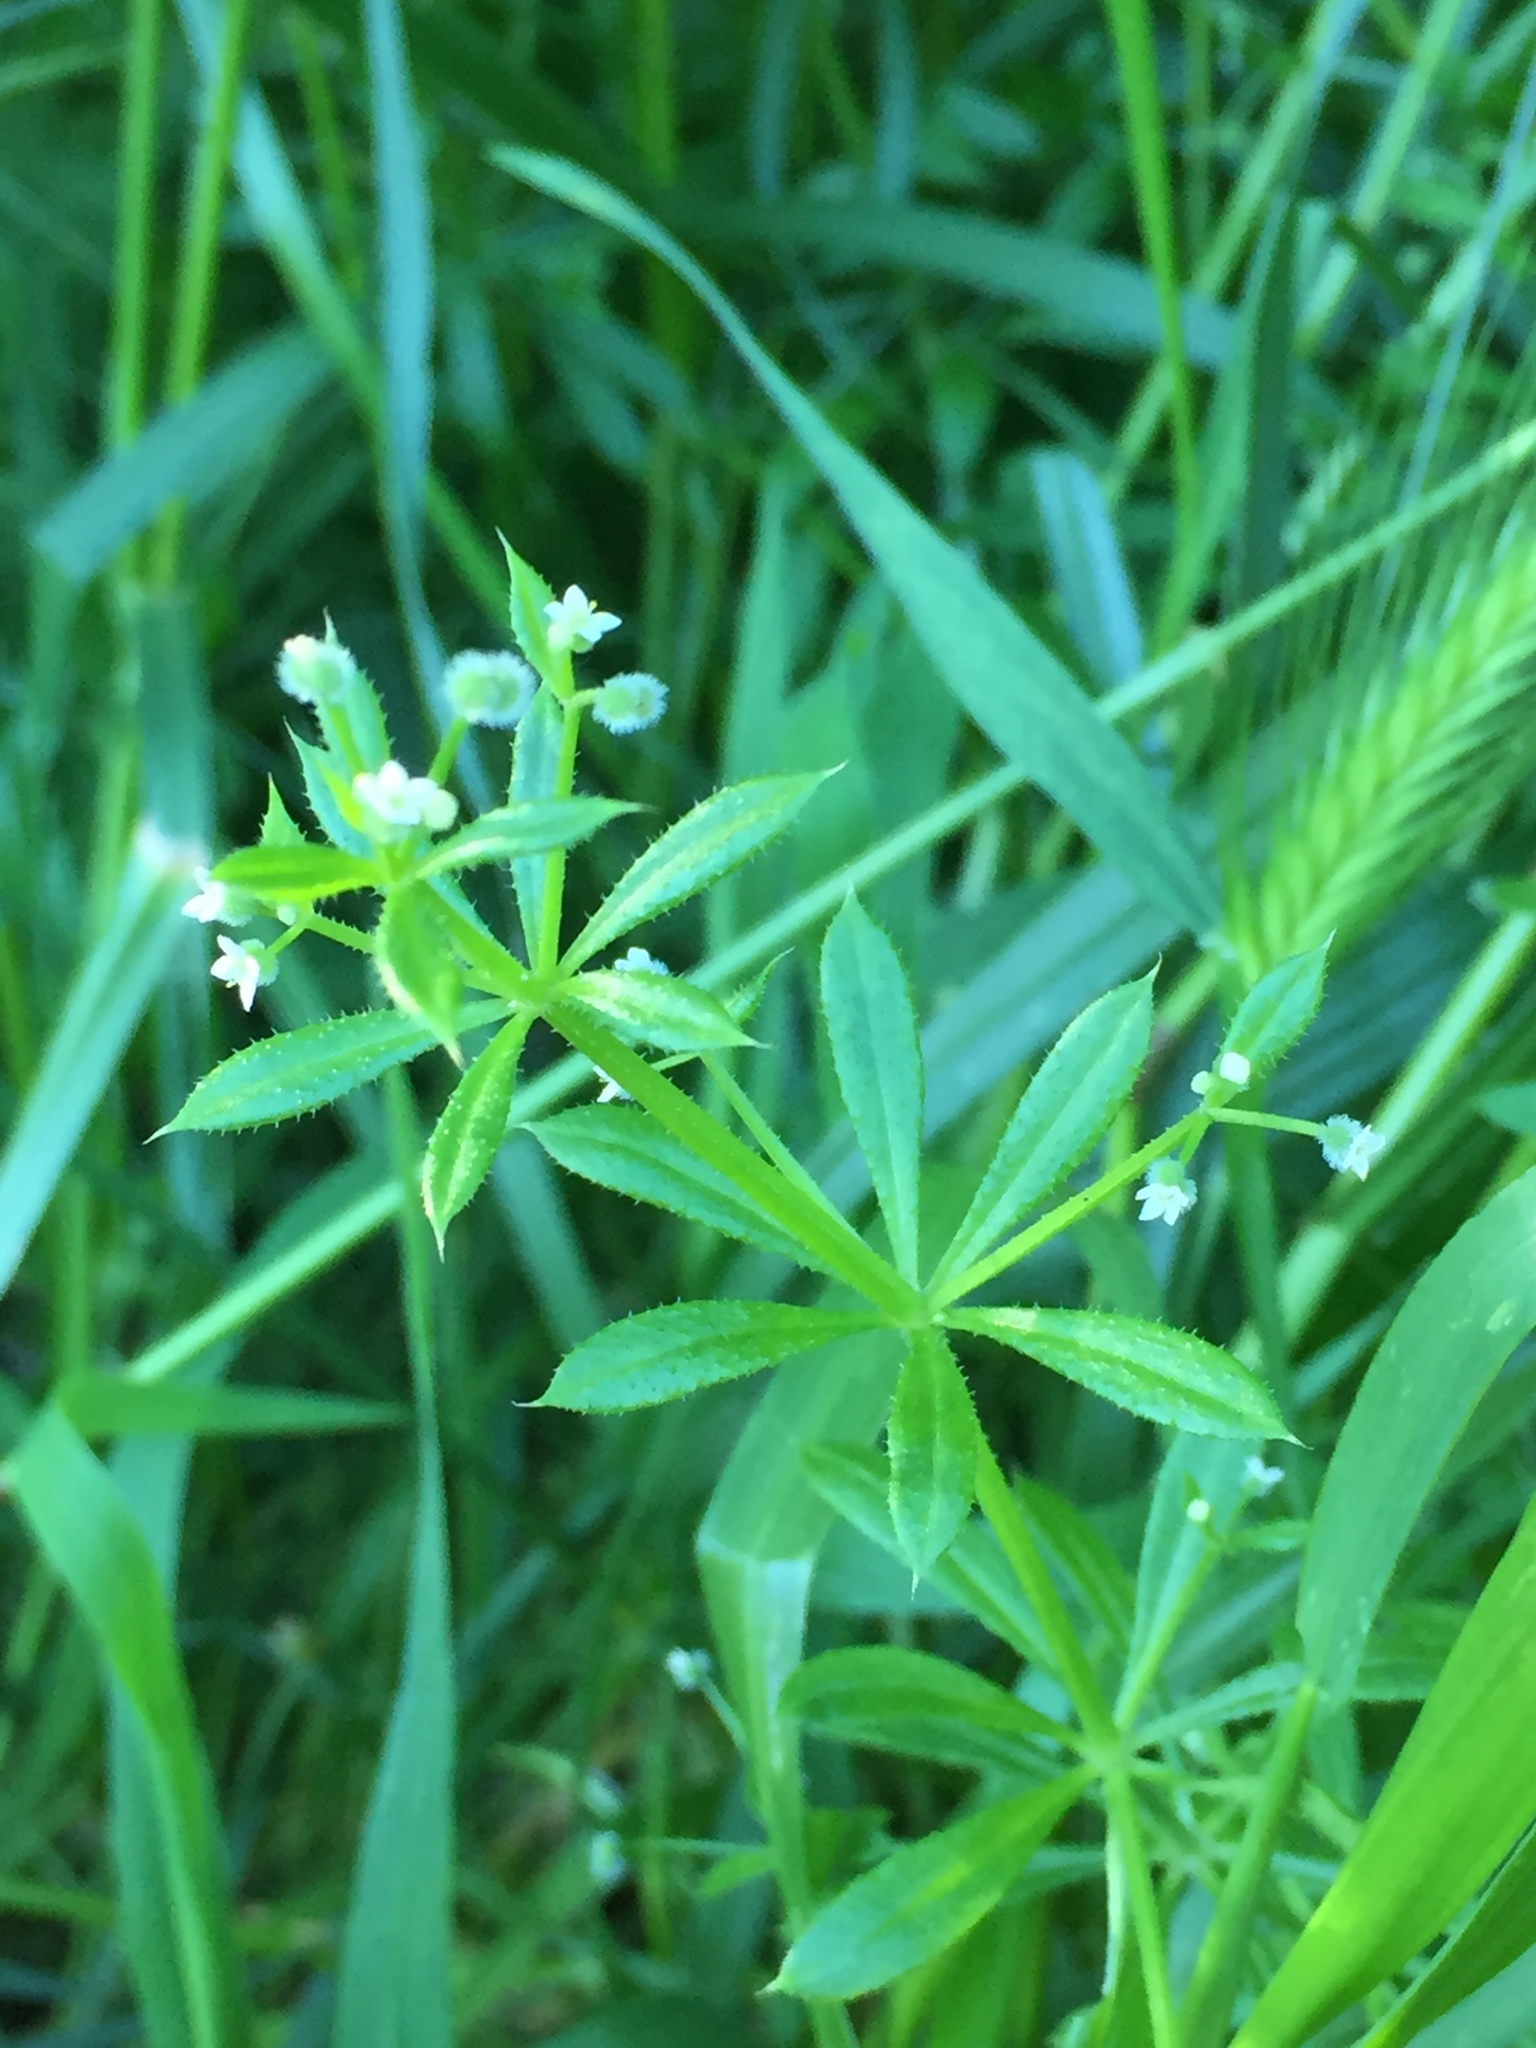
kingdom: Plantae
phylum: Tracheophyta
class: Magnoliopsida
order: Gentianales
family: Rubiaceae
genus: Galium
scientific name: Galium aparine
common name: Cleavers
